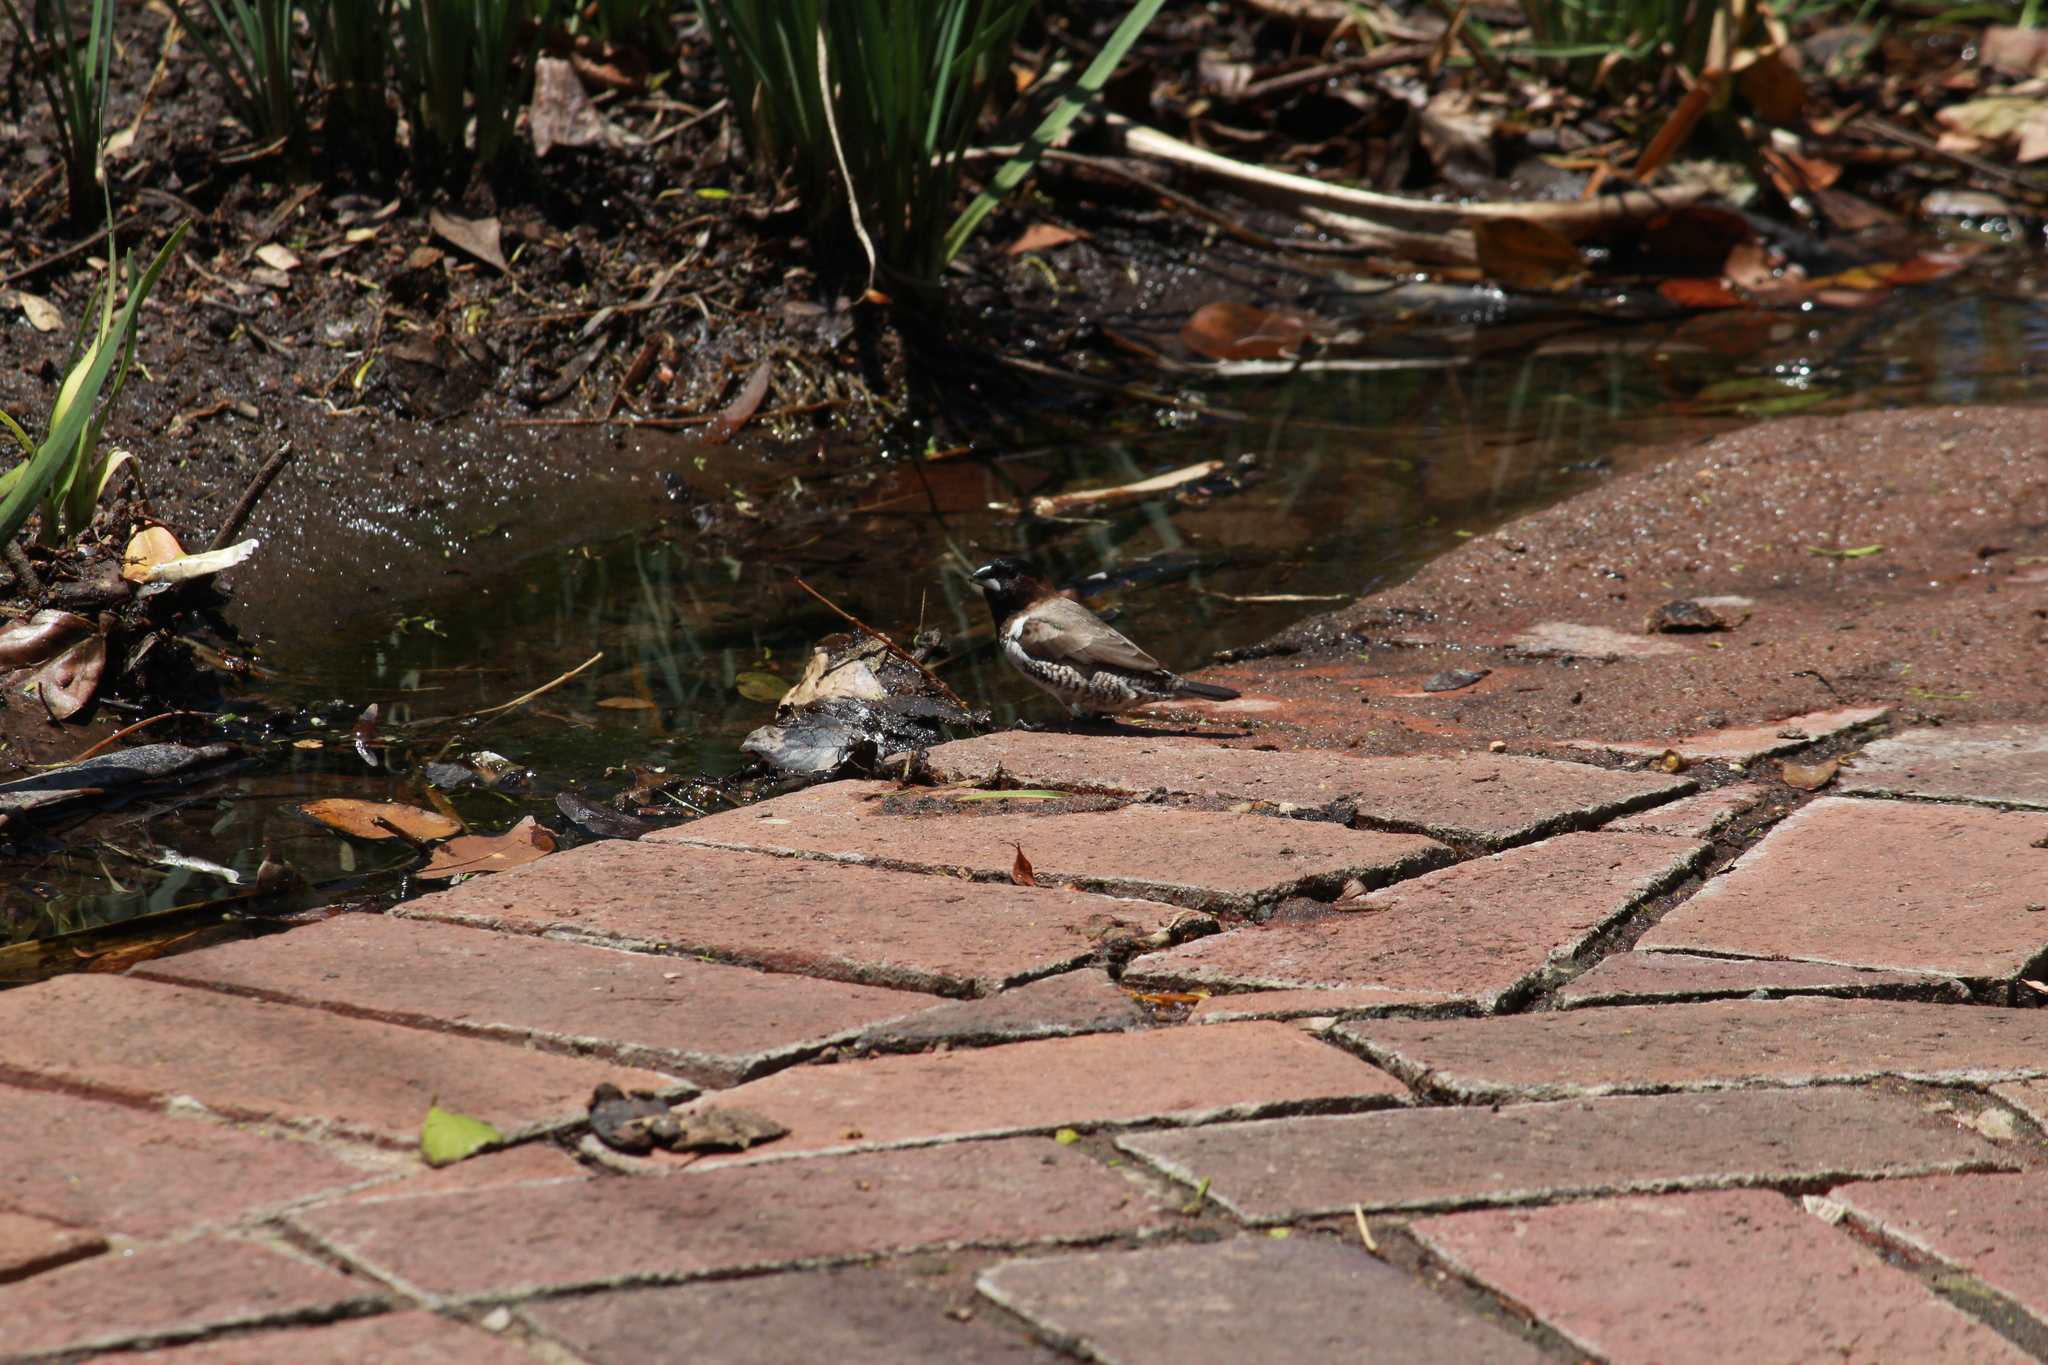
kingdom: Animalia
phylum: Chordata
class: Aves
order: Passeriformes
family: Estrildidae
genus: Lonchura
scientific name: Lonchura cucullata
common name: Bronze mannikin
